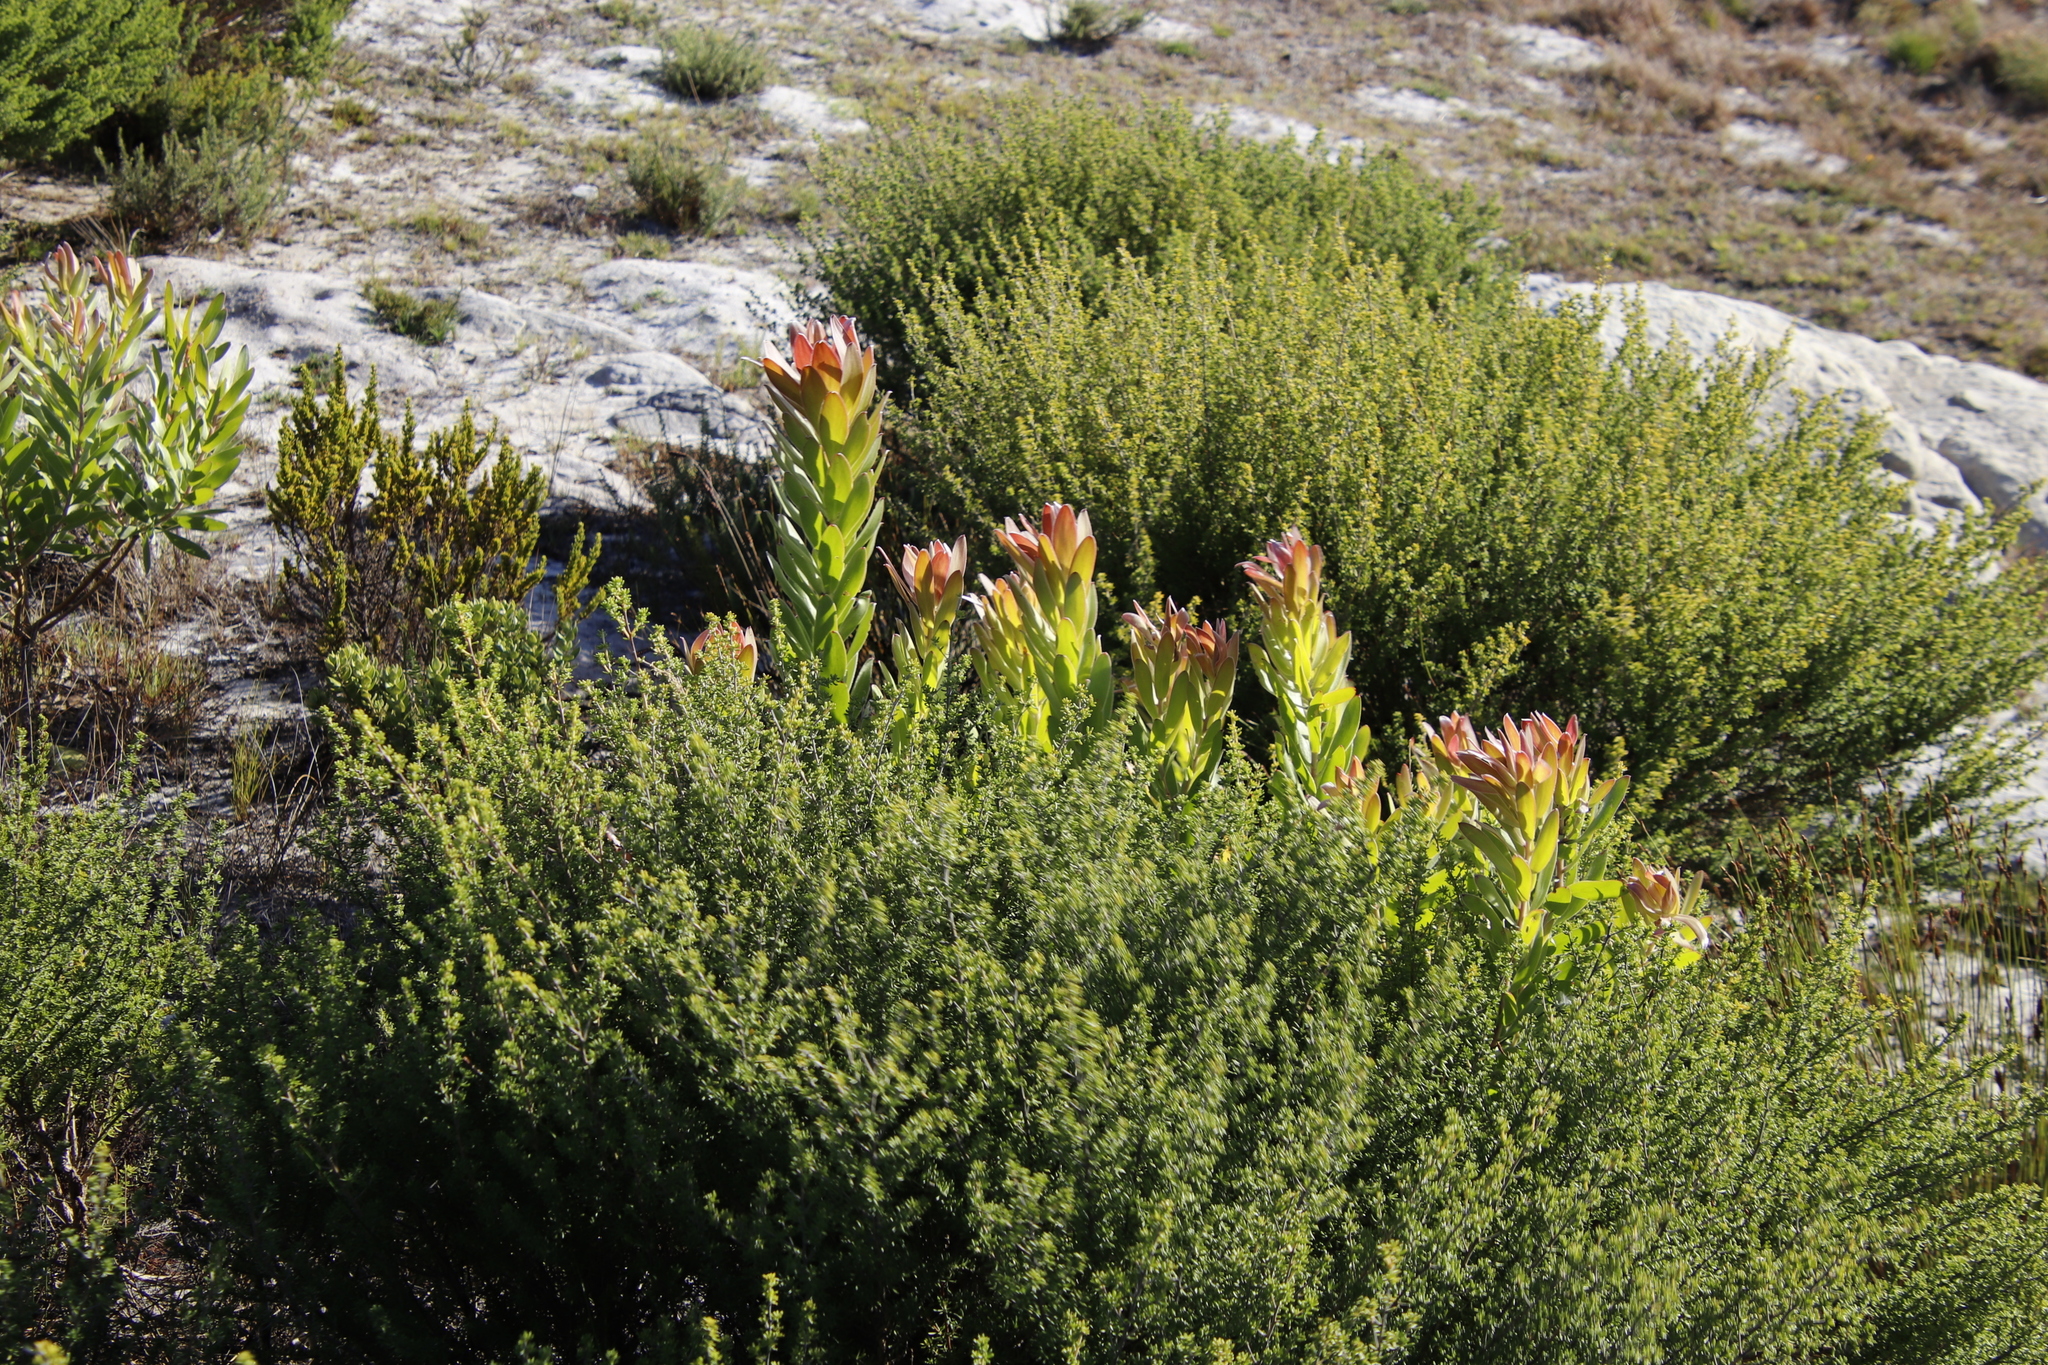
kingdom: Plantae
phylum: Tracheophyta
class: Magnoliopsida
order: Proteales
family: Proteaceae
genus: Leucadendron
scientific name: Leucadendron laureolum
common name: Golden sunshinebush
